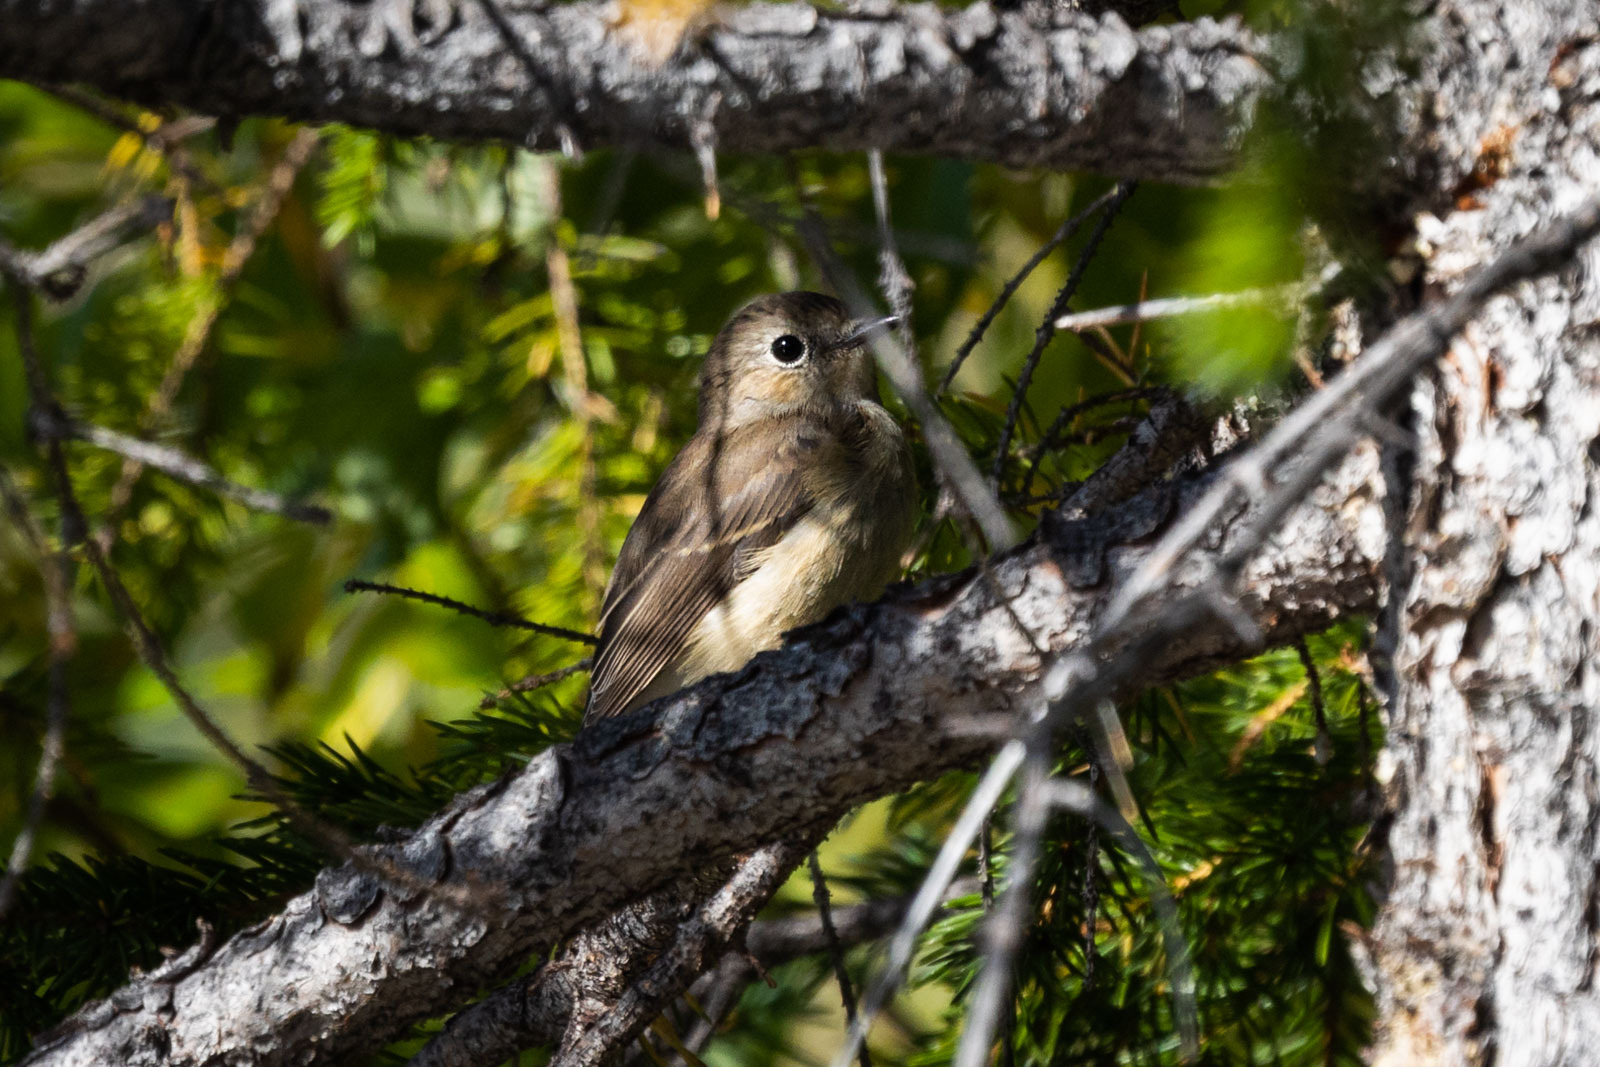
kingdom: Animalia
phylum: Chordata
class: Aves
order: Passeriformes
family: Muscicapidae
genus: Ficedula
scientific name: Ficedula albicilla
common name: Taiga flycatcher
